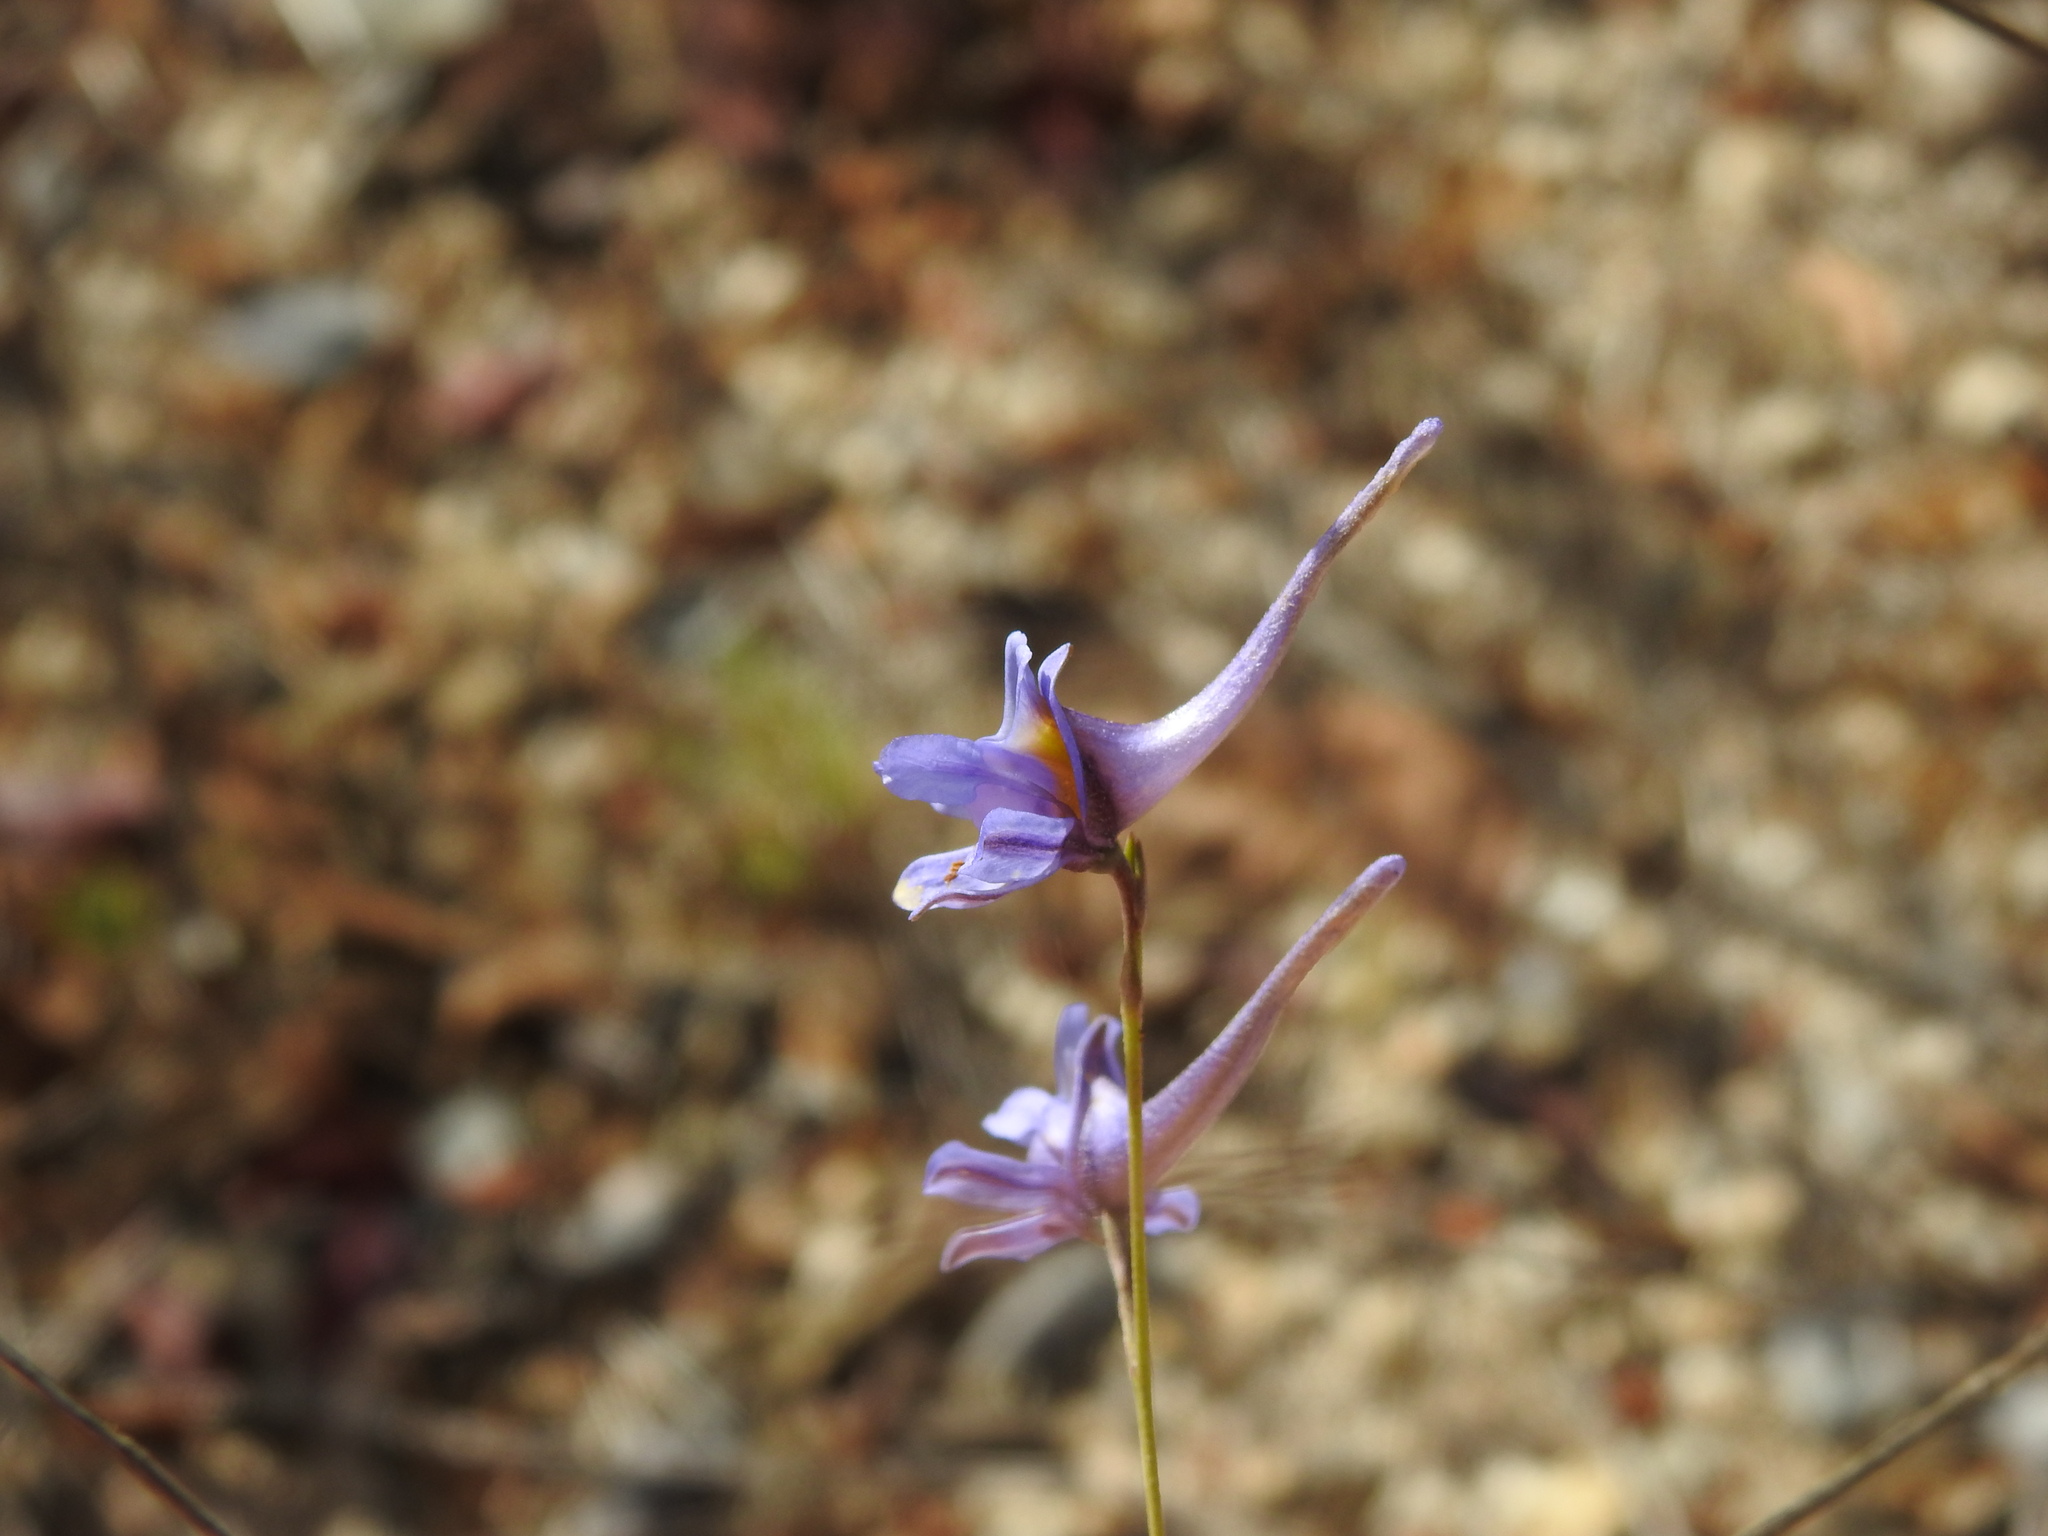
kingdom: Plantae
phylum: Tracheophyta
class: Magnoliopsida
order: Ranunculales
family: Ranunculaceae
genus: Delphinium
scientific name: Delphinium gracile
